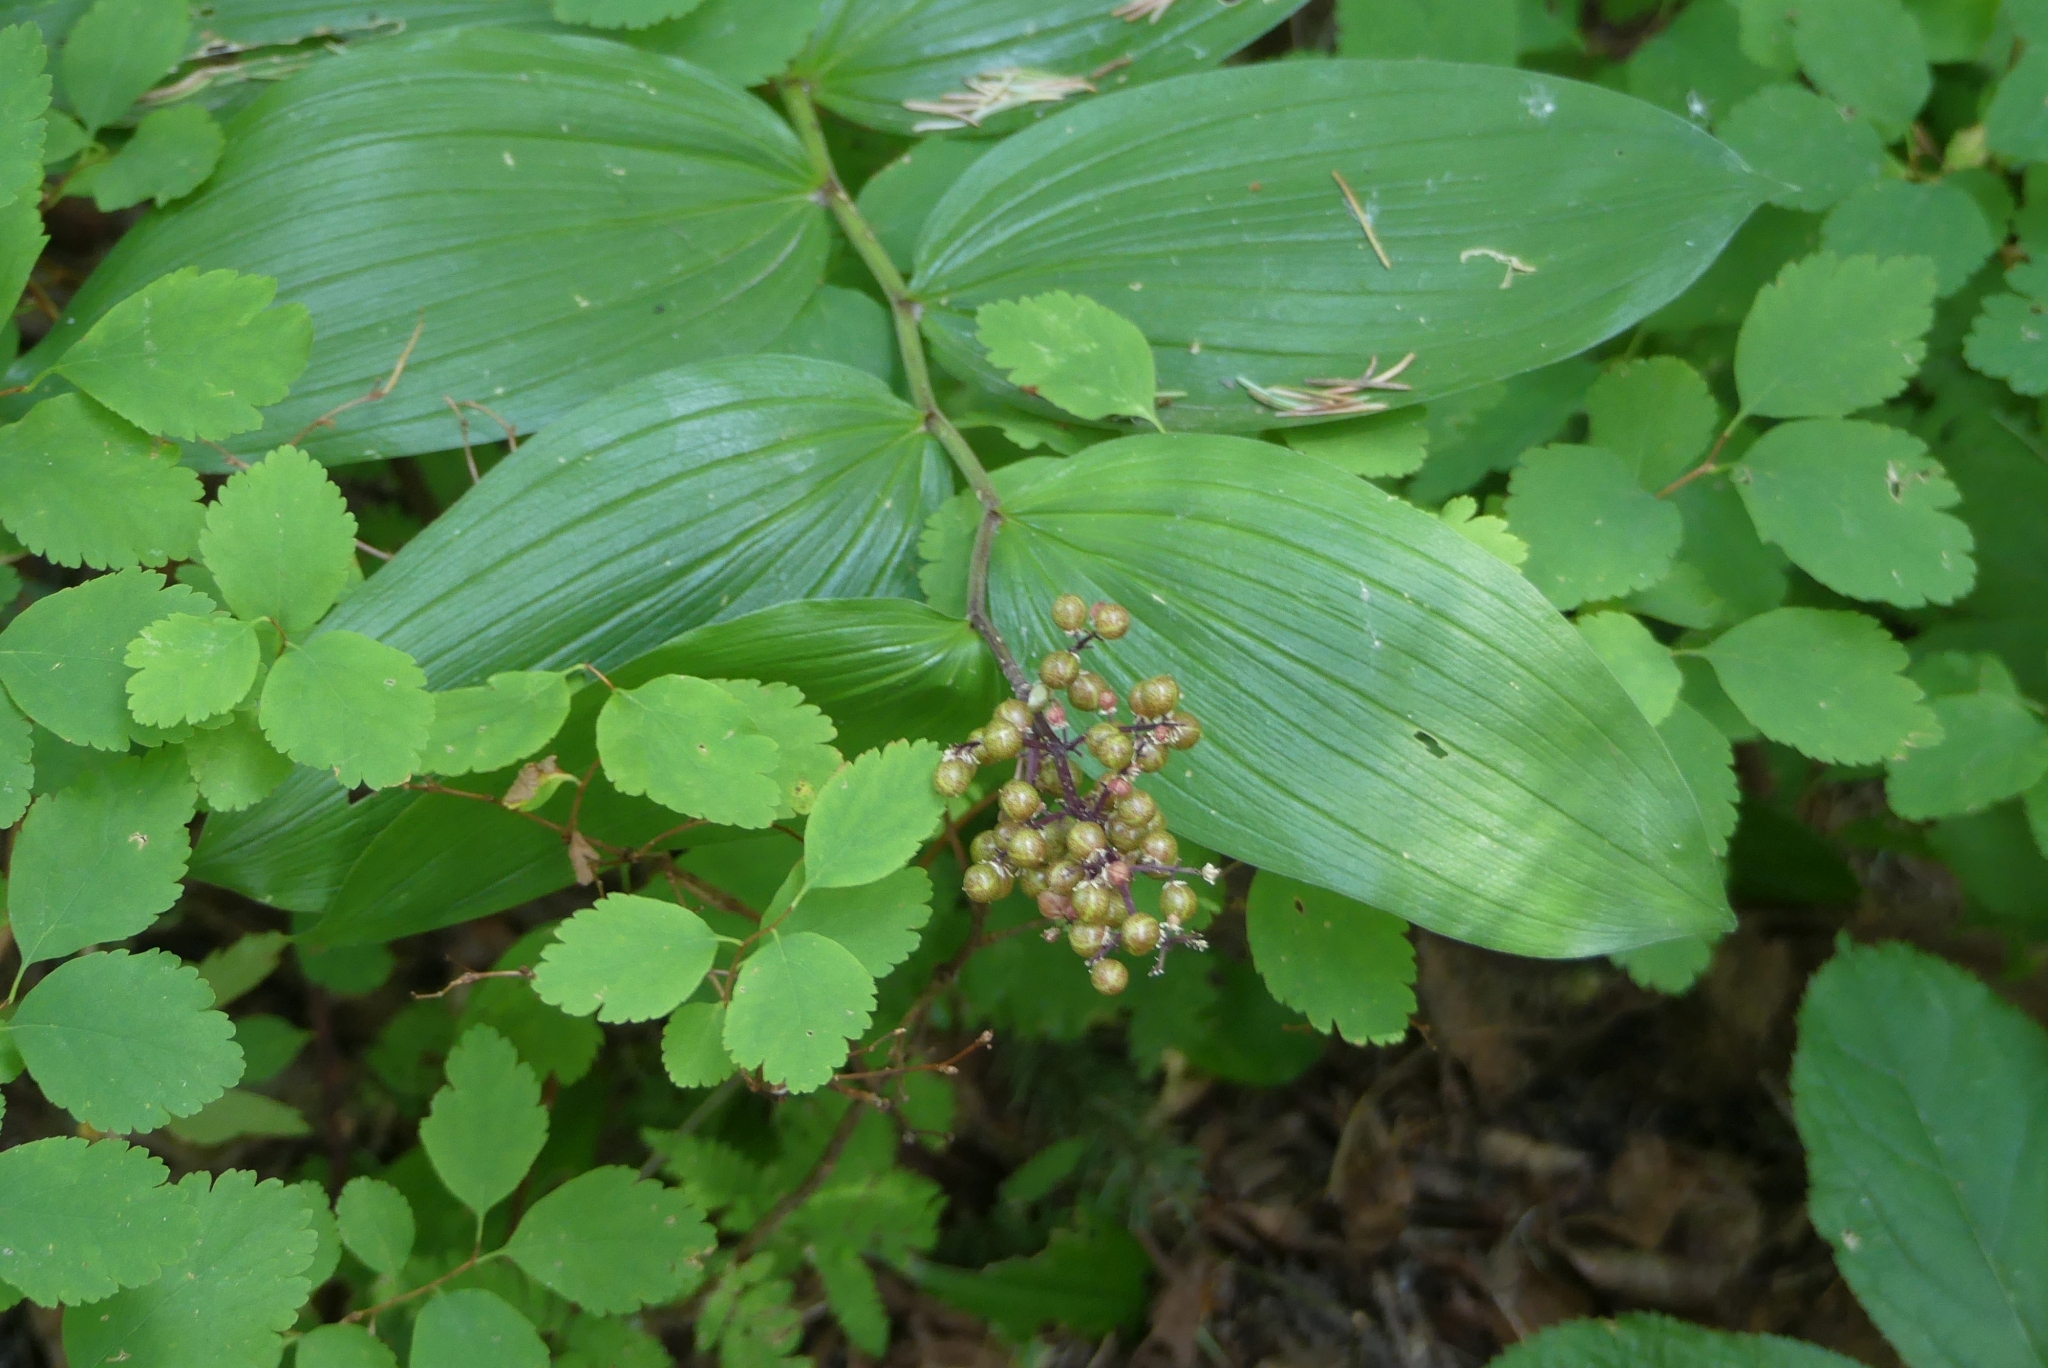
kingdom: Plantae
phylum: Tracheophyta
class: Liliopsida
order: Asparagales
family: Asparagaceae
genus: Maianthemum
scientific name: Maianthemum racemosum
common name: False spikenard
